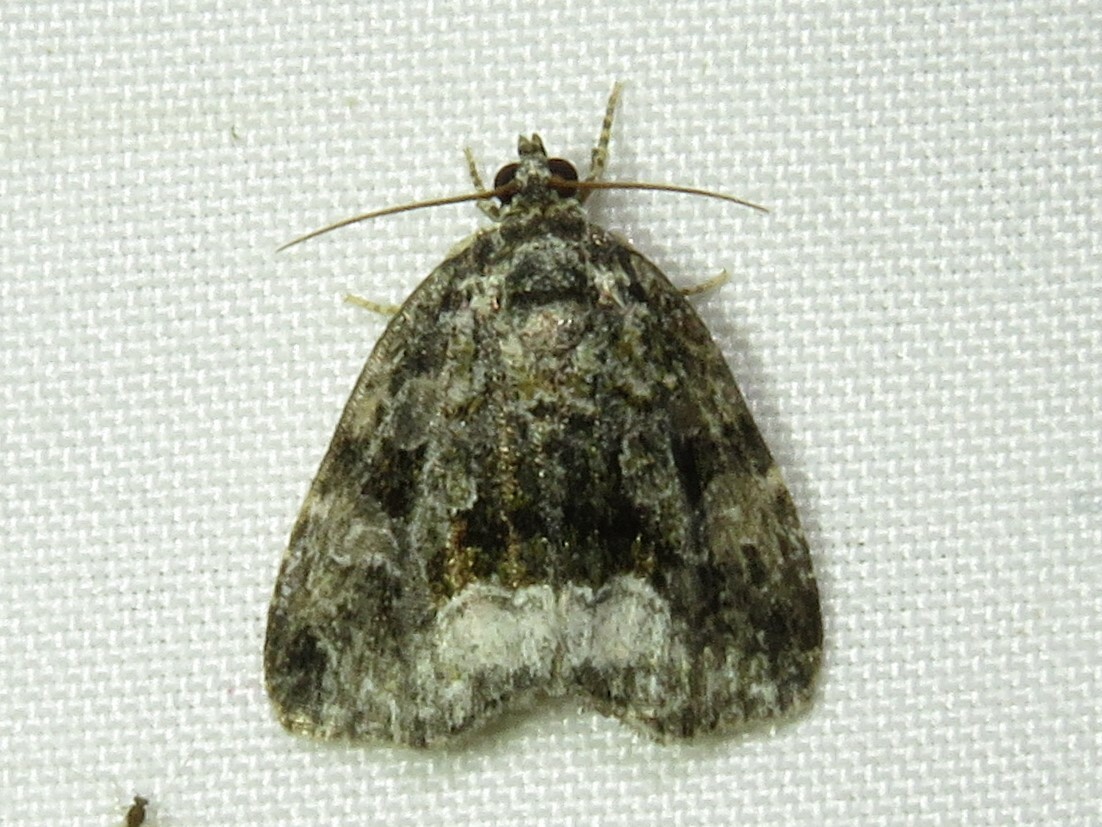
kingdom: Animalia
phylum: Arthropoda
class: Insecta
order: Lepidoptera
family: Noctuidae
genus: Protodeltote
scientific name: Protodeltote muscosula
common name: Large mossy glyph
